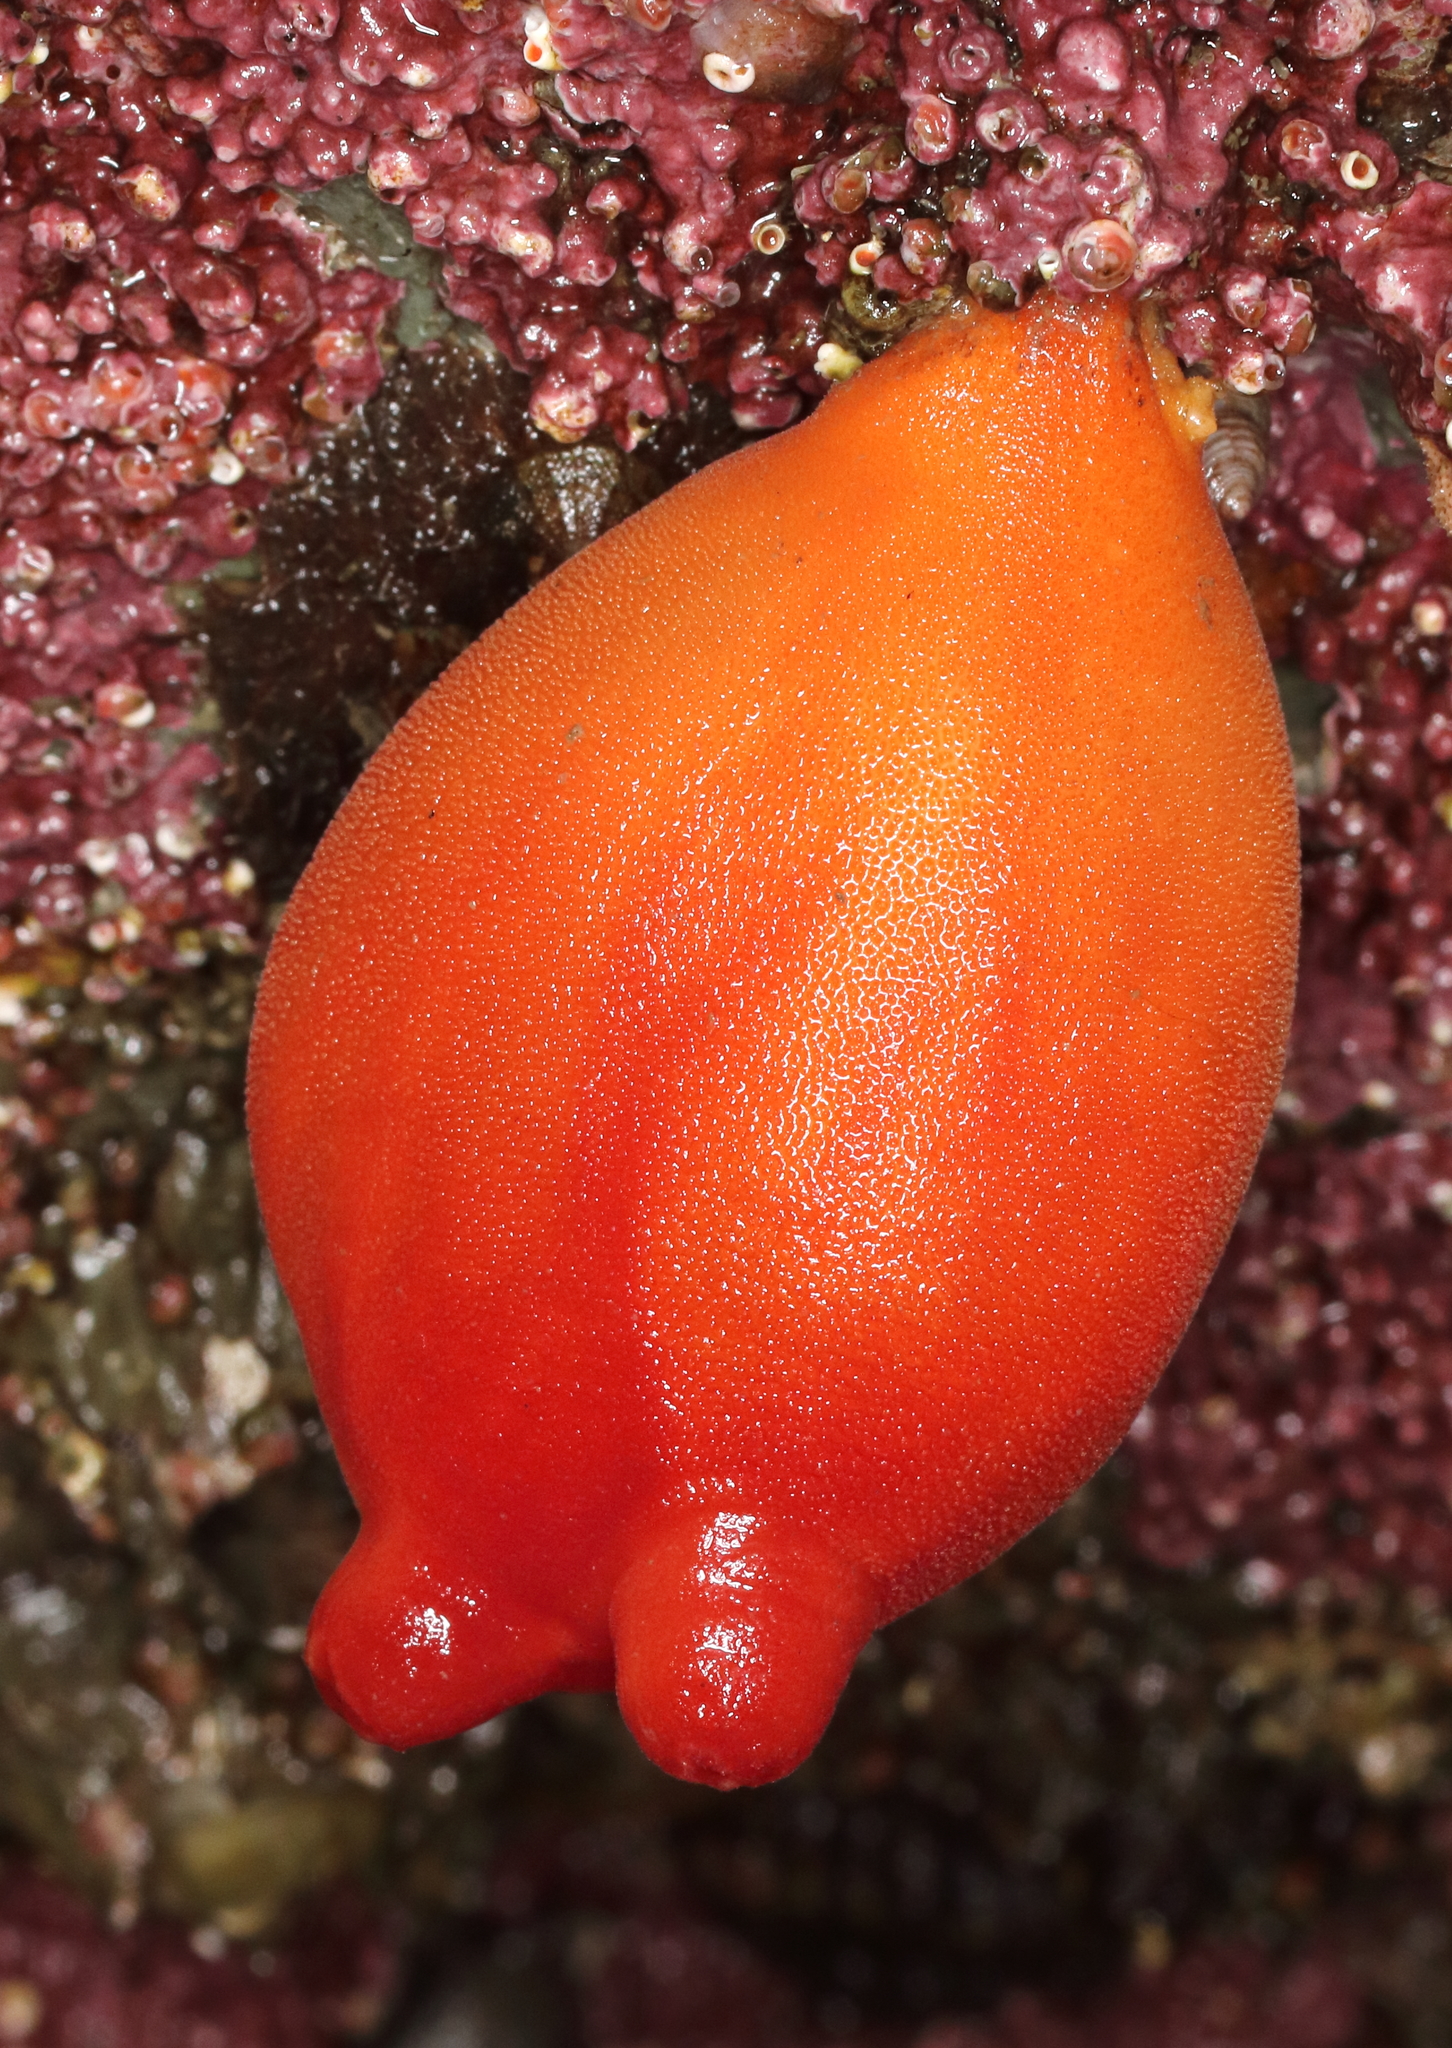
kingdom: Animalia
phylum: Chordata
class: Ascidiacea
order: Stolidobranchia
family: Pyuridae
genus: Halocynthia
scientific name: Halocynthia aurantium
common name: Sea peach
